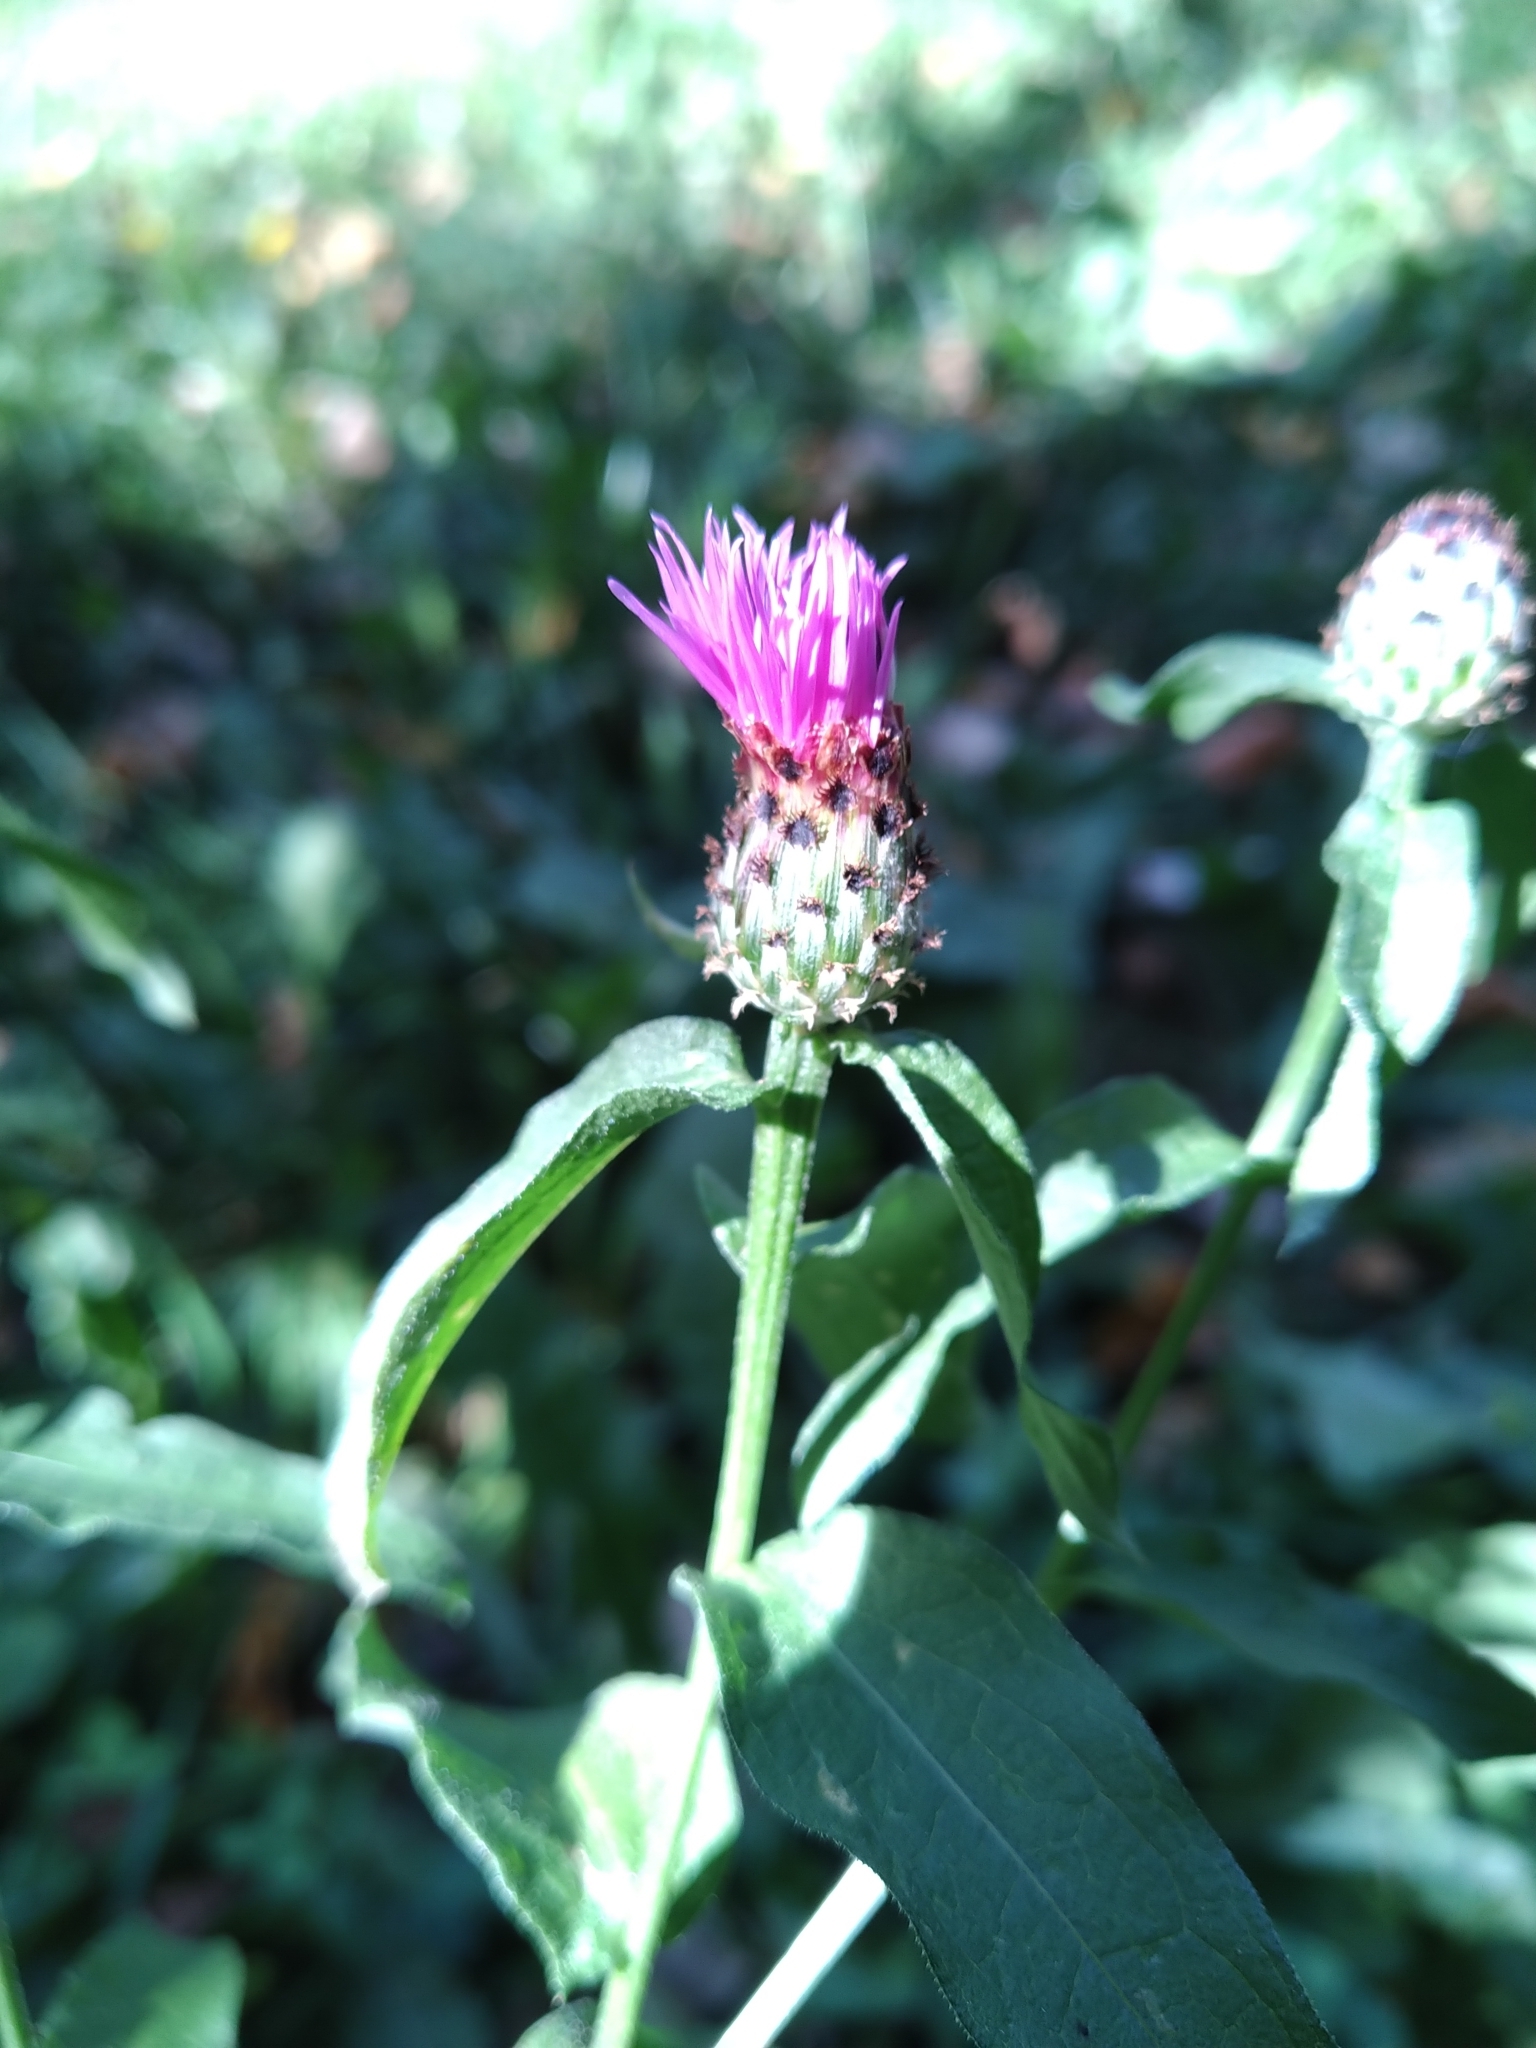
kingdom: Plantae
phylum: Tracheophyta
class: Magnoliopsida
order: Asterales
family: Asteraceae
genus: Centaurea
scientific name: Centaurea nigrescens
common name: Tyrol knapweed
